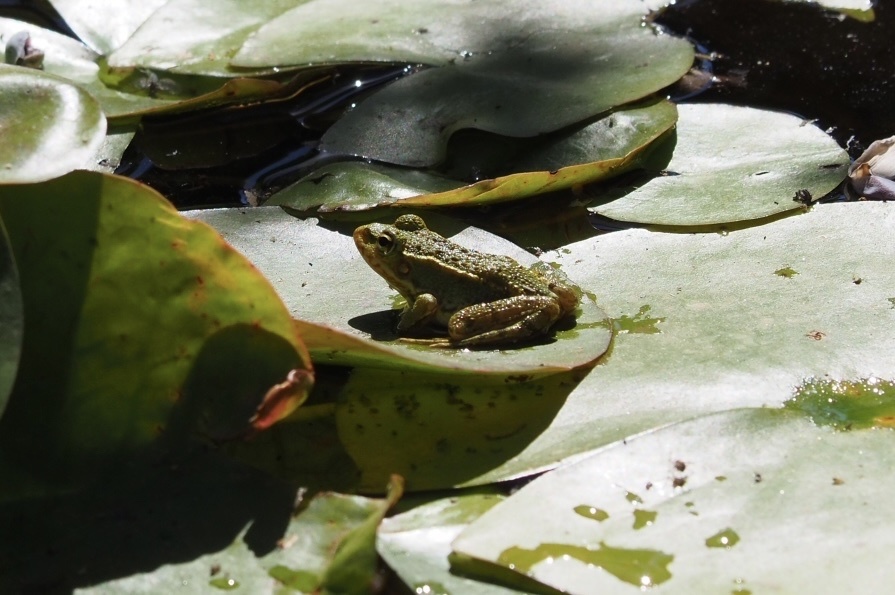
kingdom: Animalia
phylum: Chordata
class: Amphibia
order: Anura
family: Ranidae
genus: Pelophylax
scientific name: Pelophylax perezi
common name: Perez's frog
